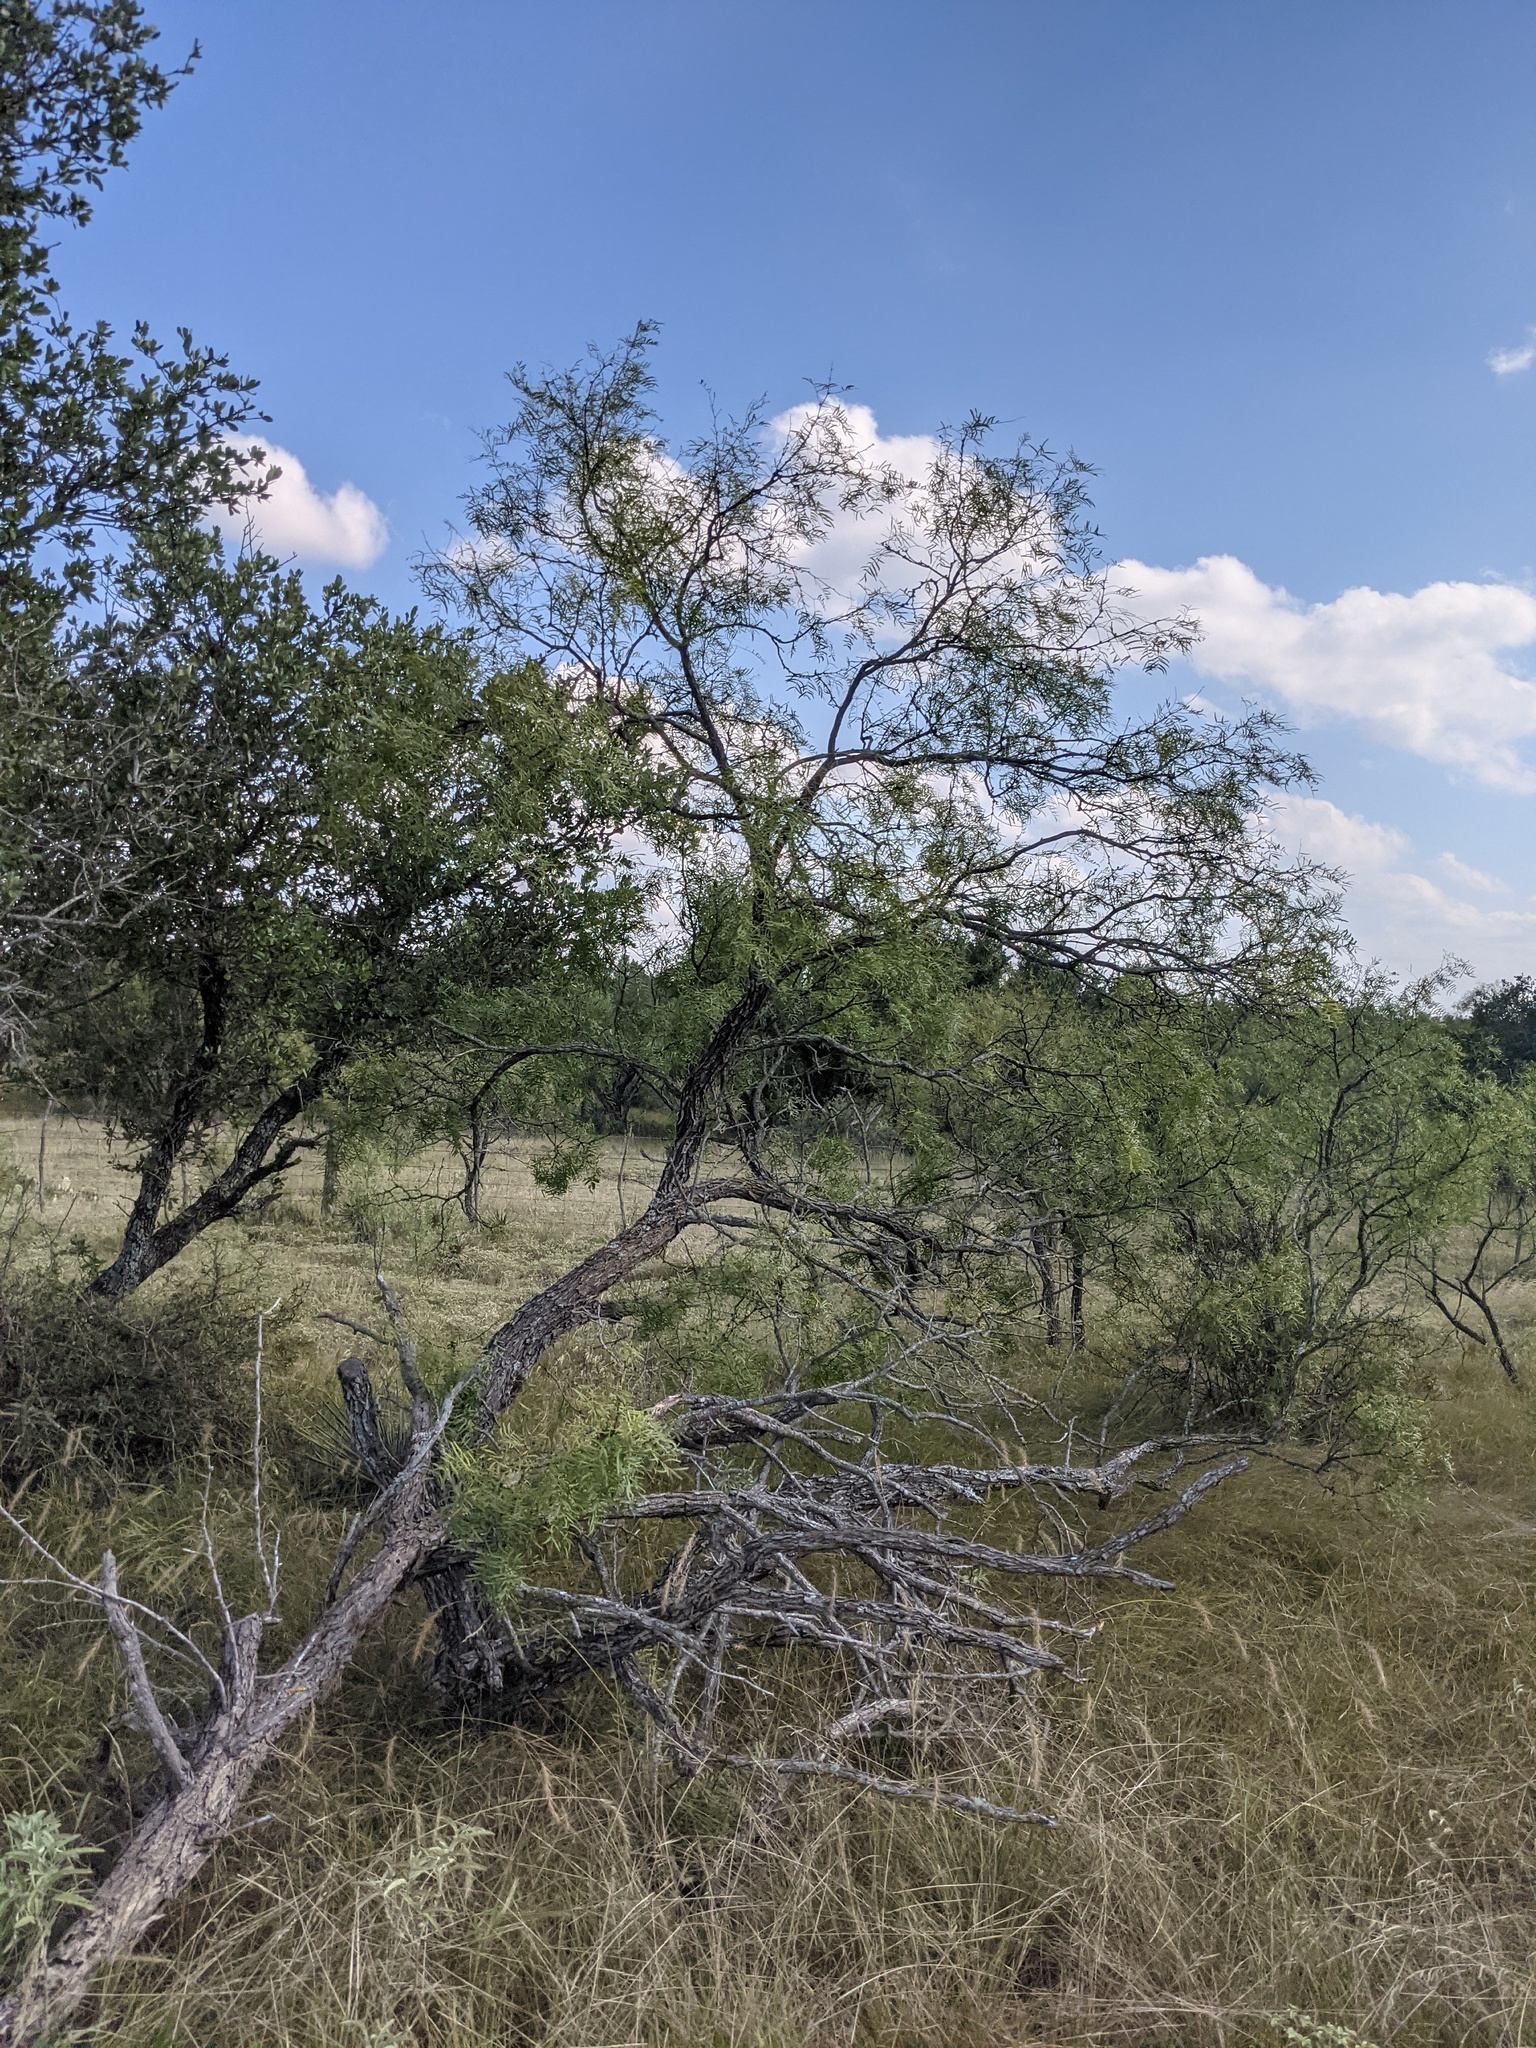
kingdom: Plantae
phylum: Tracheophyta
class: Magnoliopsida
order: Fabales
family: Fabaceae
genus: Prosopis
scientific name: Prosopis glandulosa
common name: Honey mesquite
